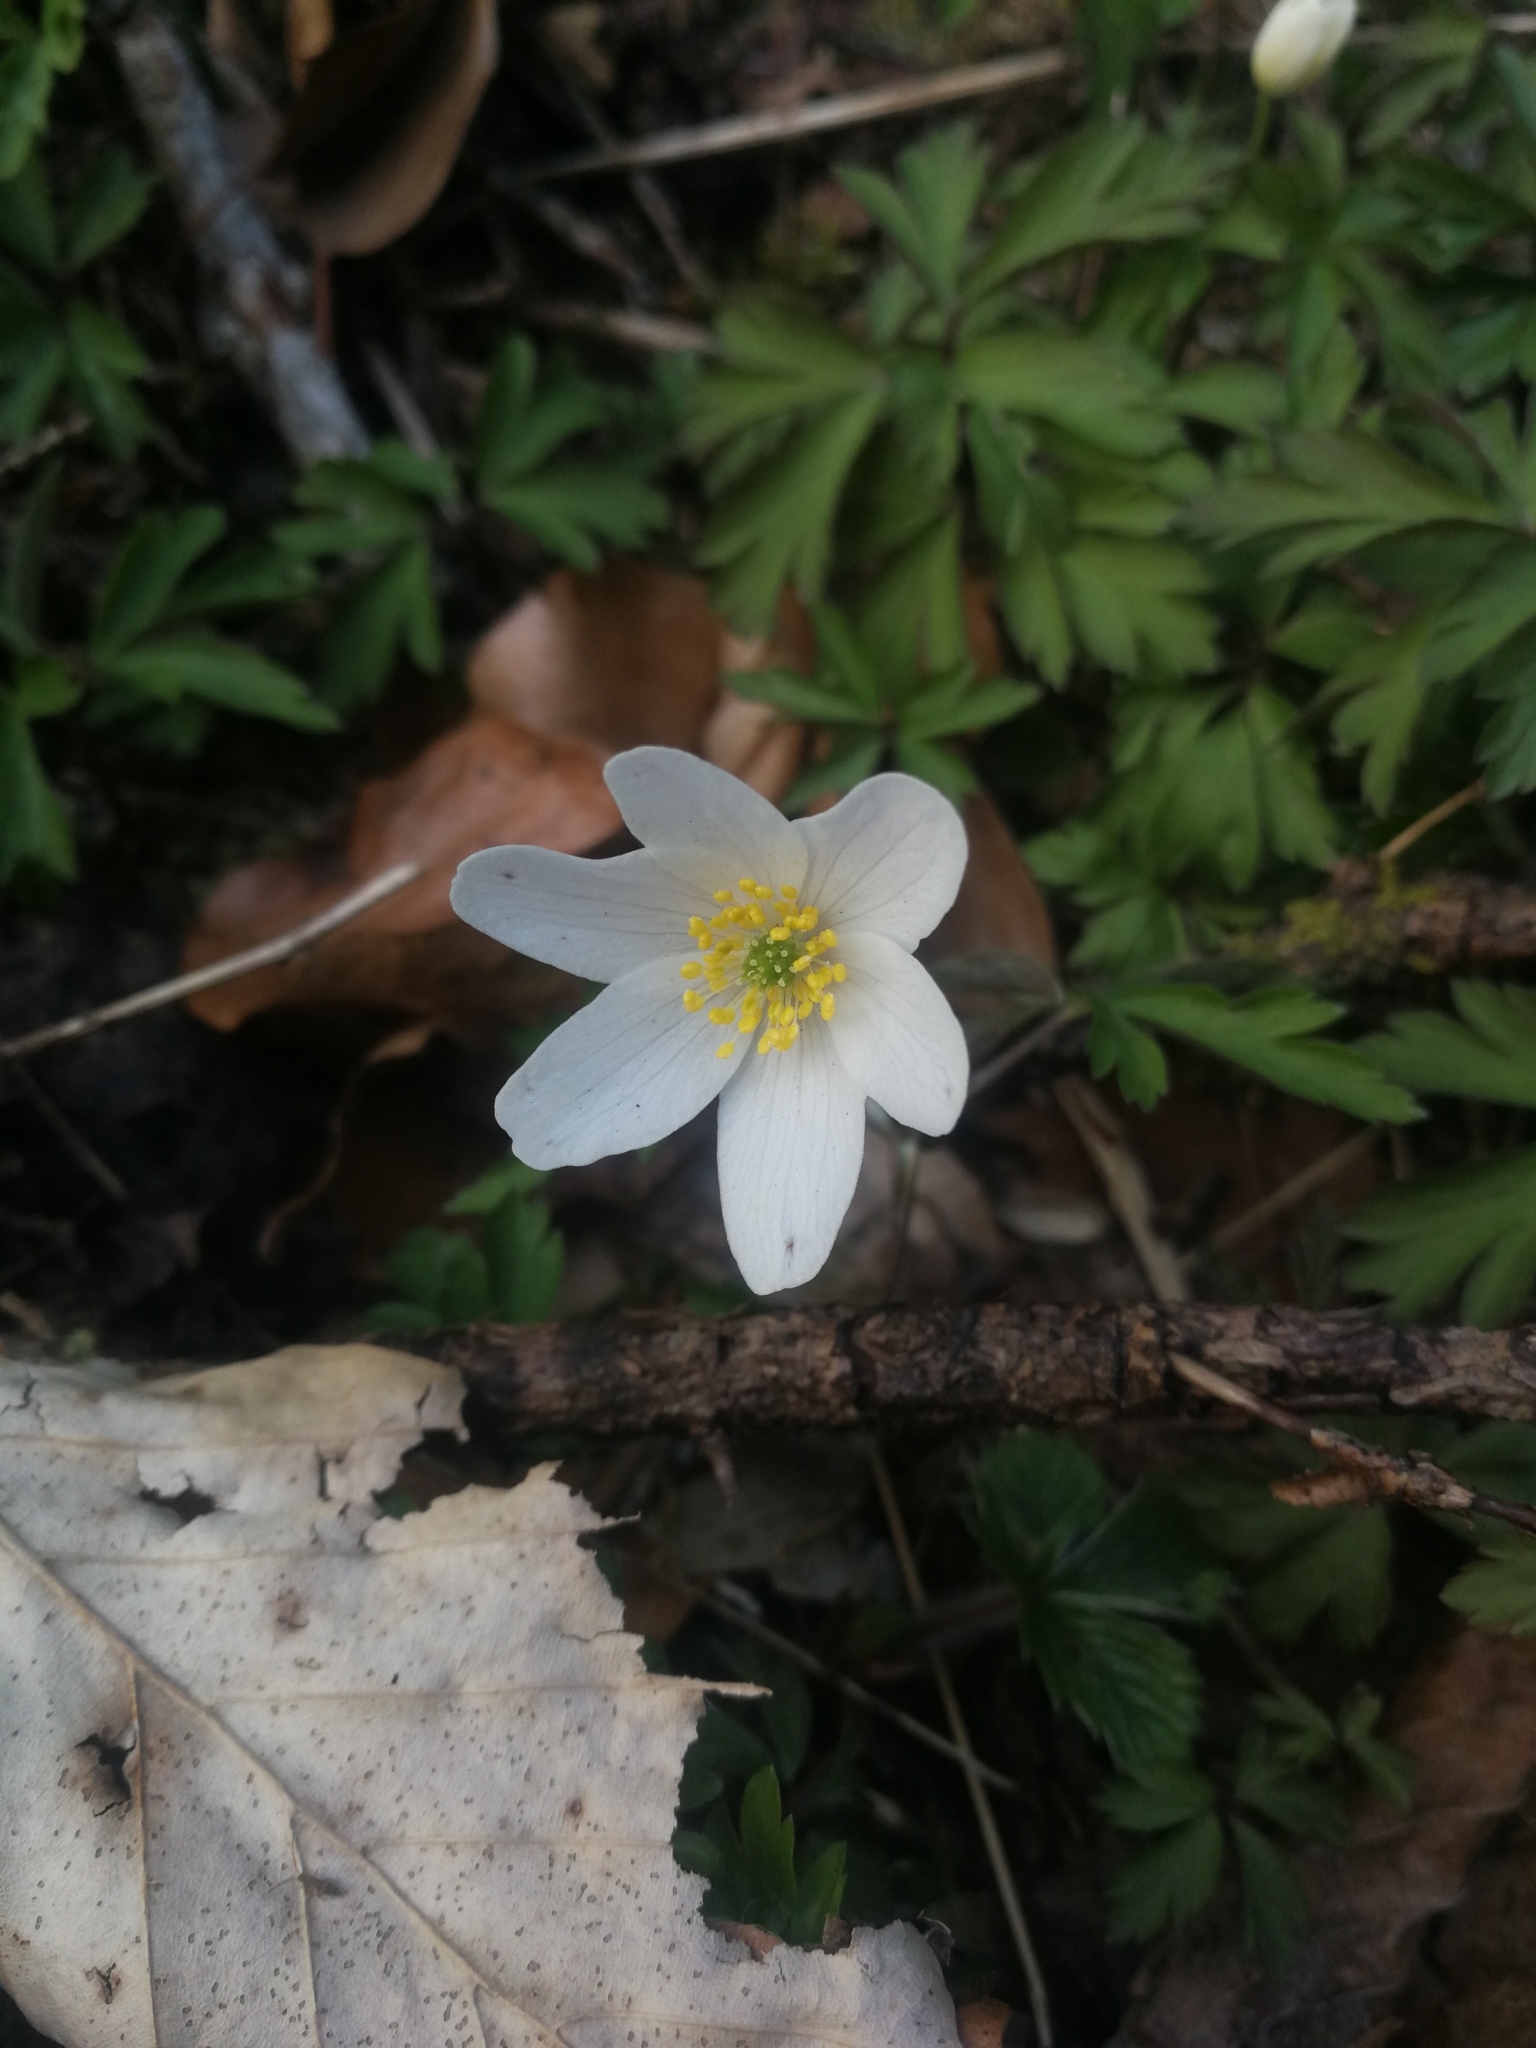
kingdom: Plantae
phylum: Tracheophyta
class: Magnoliopsida
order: Ranunculales
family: Ranunculaceae
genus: Anemone
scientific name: Anemone nemorosa
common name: Wood anemone
